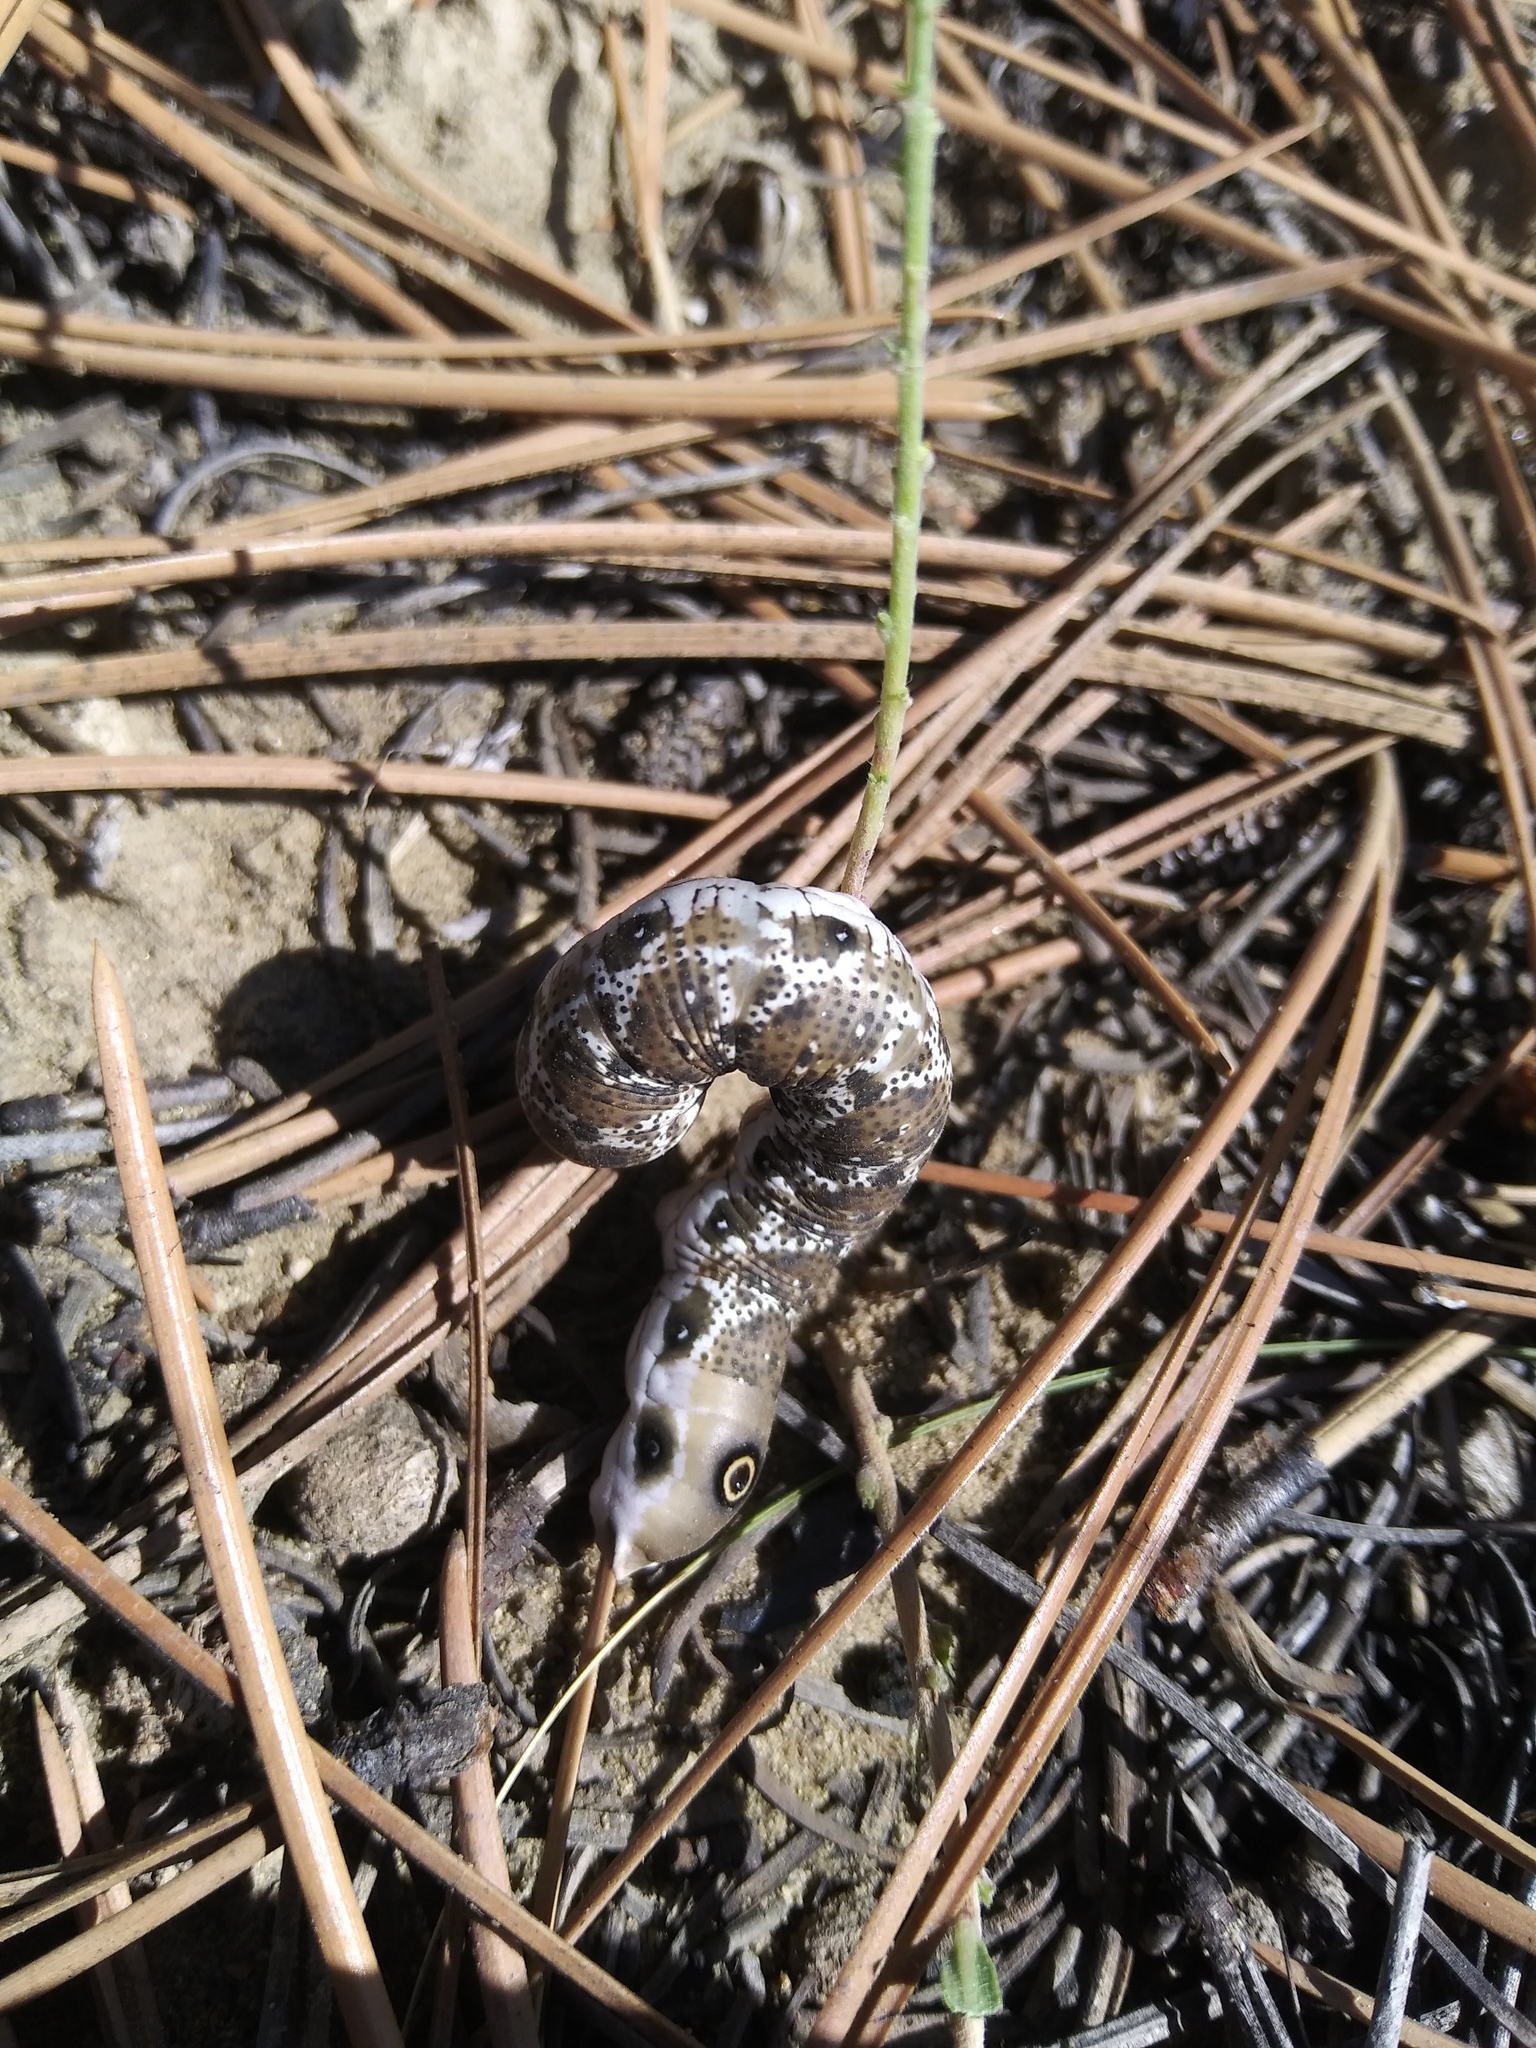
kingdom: Animalia
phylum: Arthropoda
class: Insecta
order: Lepidoptera
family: Sphingidae
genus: Proserpinus
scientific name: Proserpinus juanita
